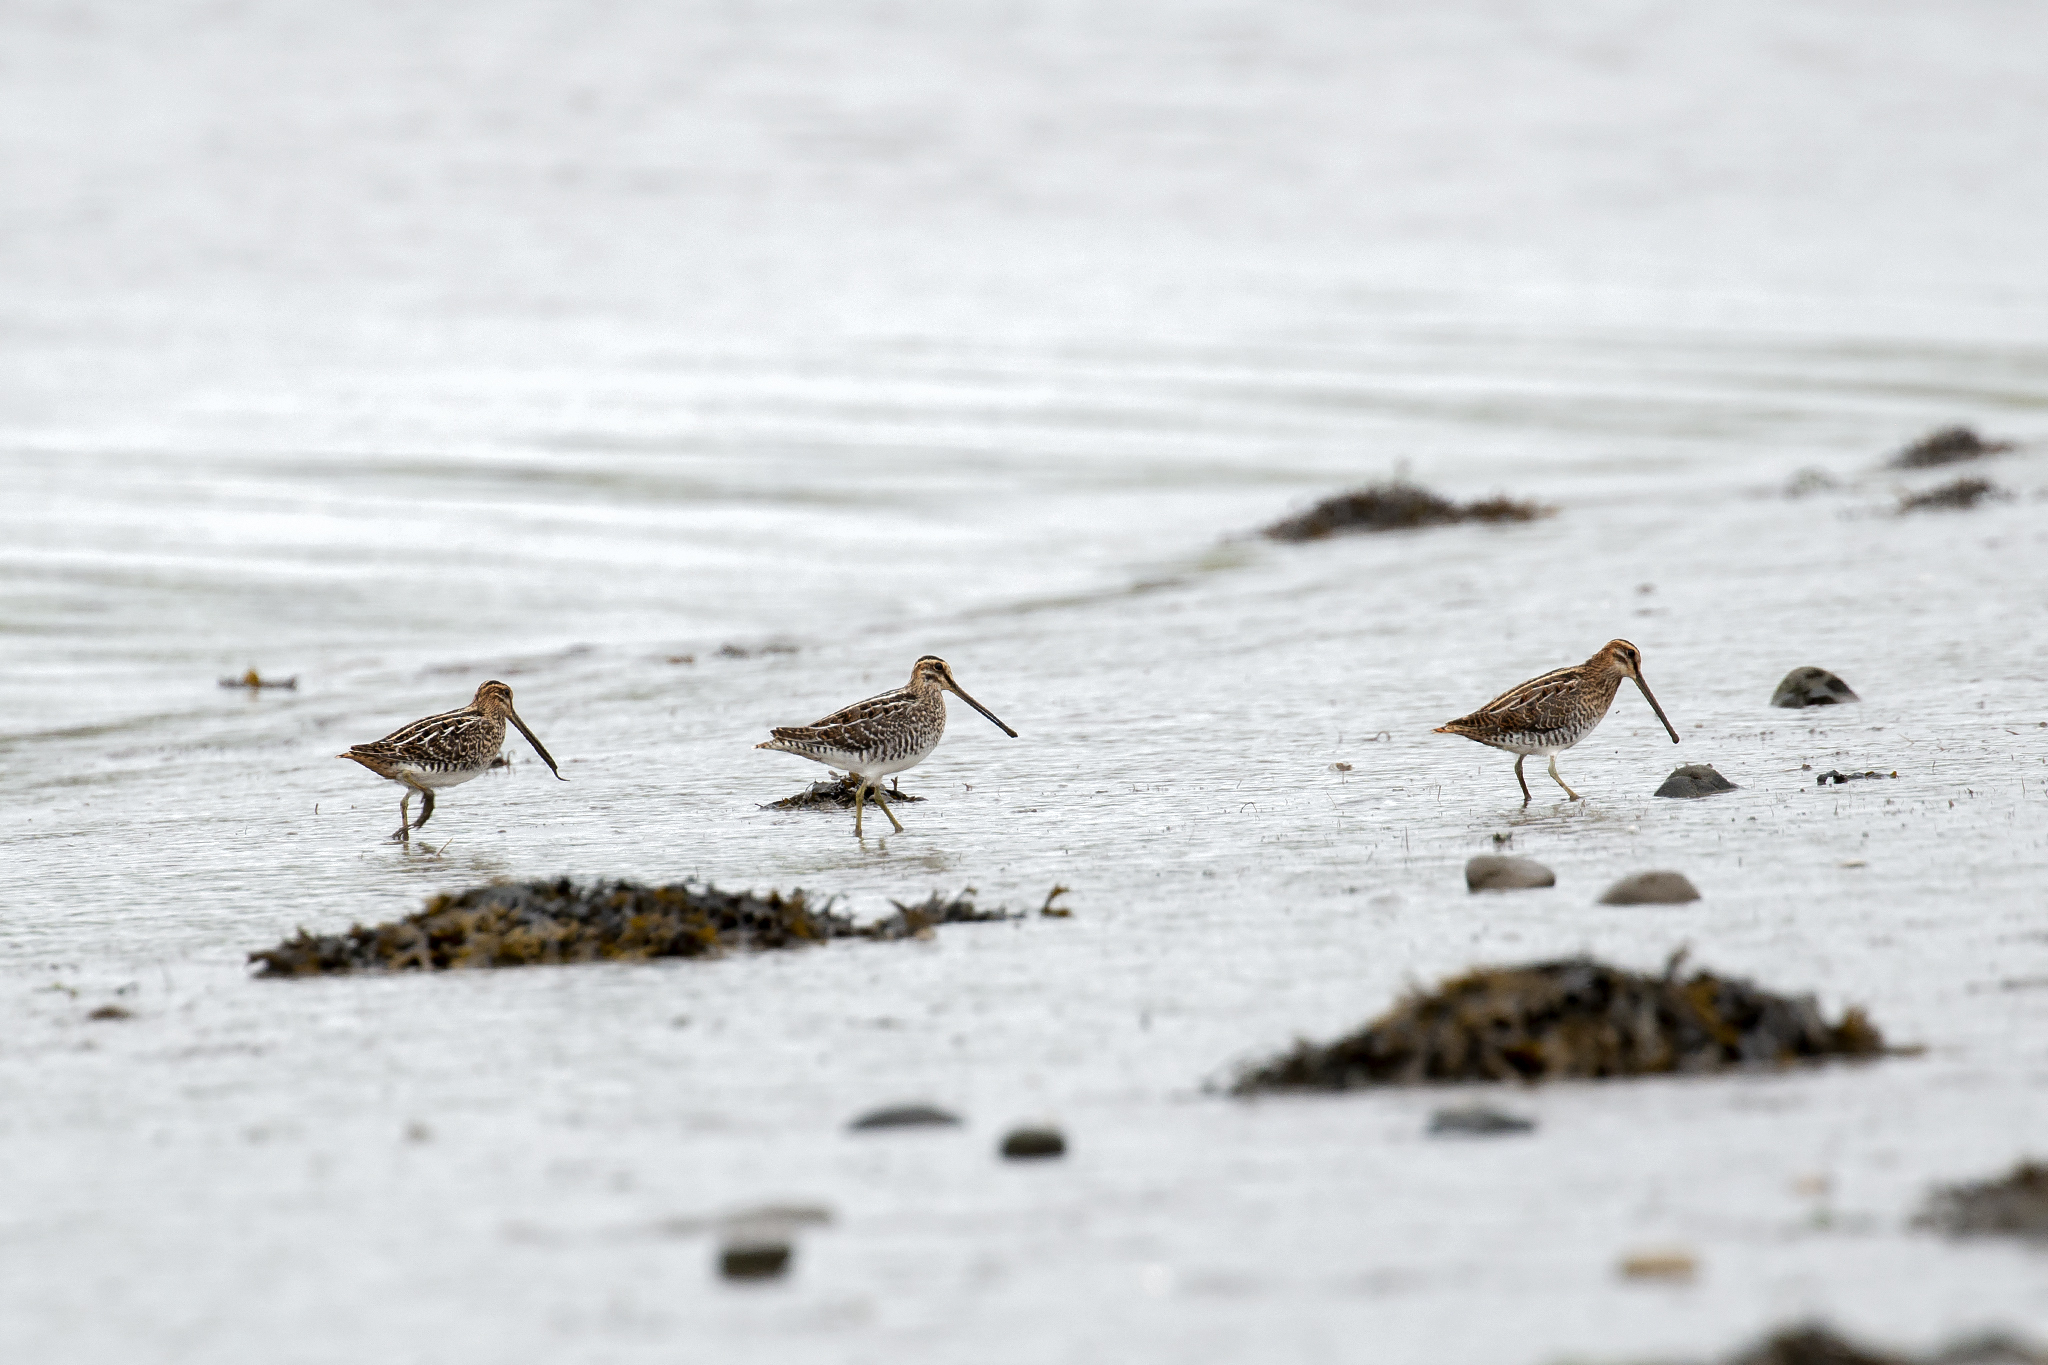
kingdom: Animalia
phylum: Chordata
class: Aves
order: Charadriiformes
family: Scolopacidae
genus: Gallinago
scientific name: Gallinago gallinago
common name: Common snipe
